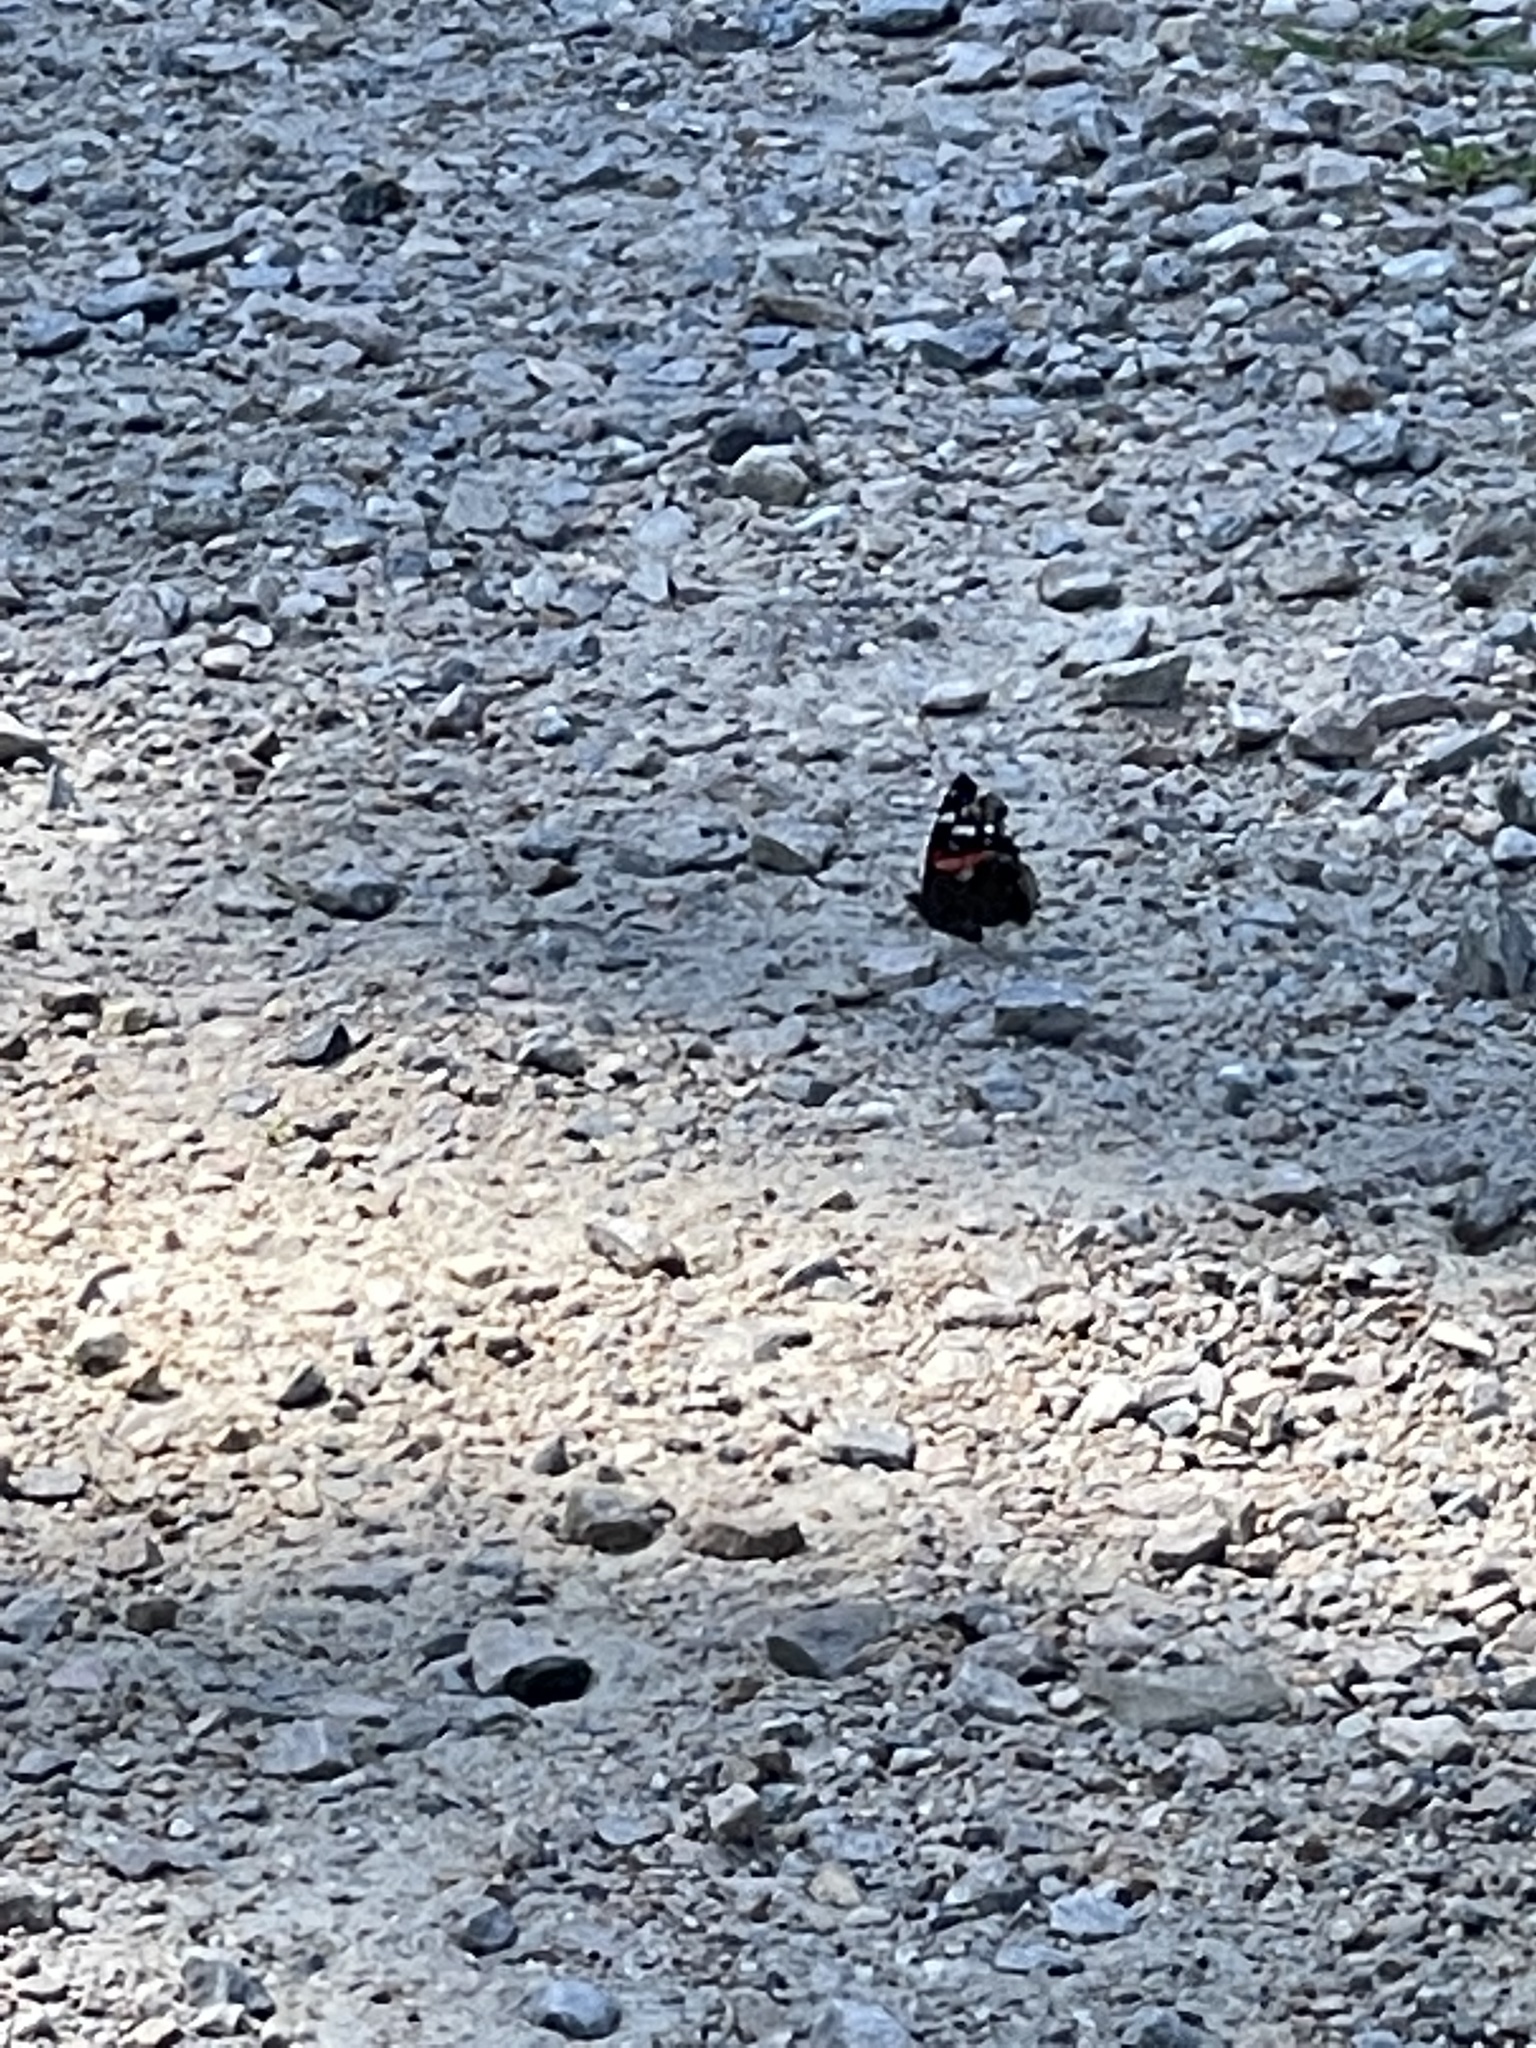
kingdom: Animalia
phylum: Arthropoda
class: Insecta
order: Lepidoptera
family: Nymphalidae
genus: Vanessa
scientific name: Vanessa atalanta
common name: Red admiral
